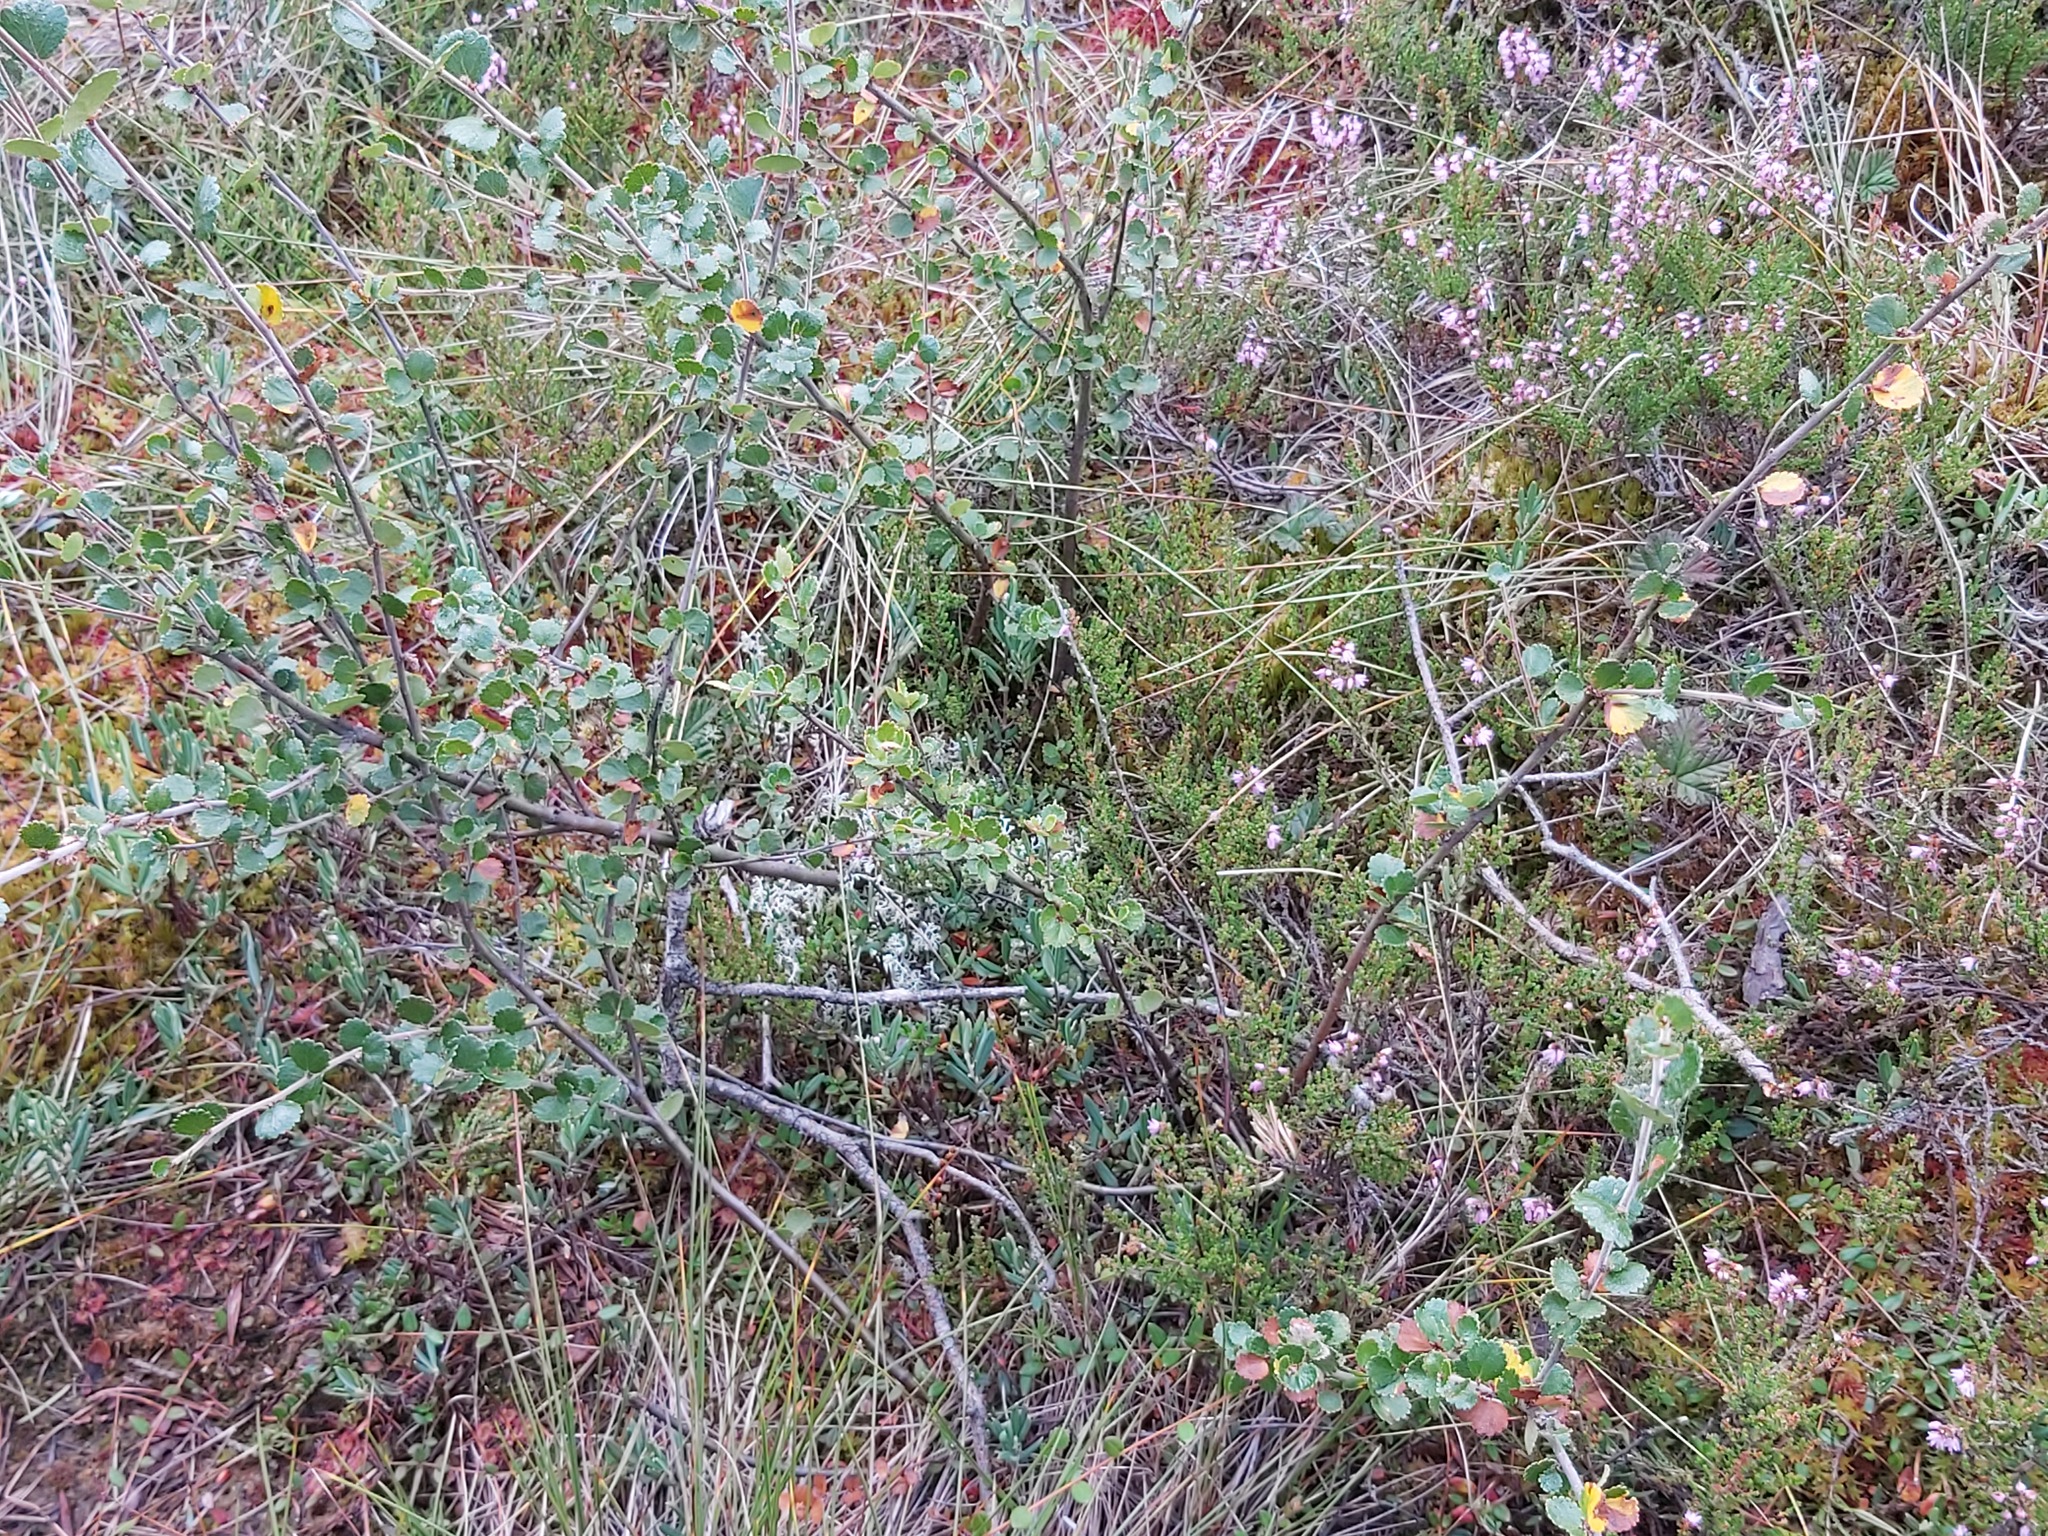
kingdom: Plantae
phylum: Tracheophyta
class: Magnoliopsida
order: Fagales
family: Betulaceae
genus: Betula
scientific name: Betula nana
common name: Arctic dwarf birch
